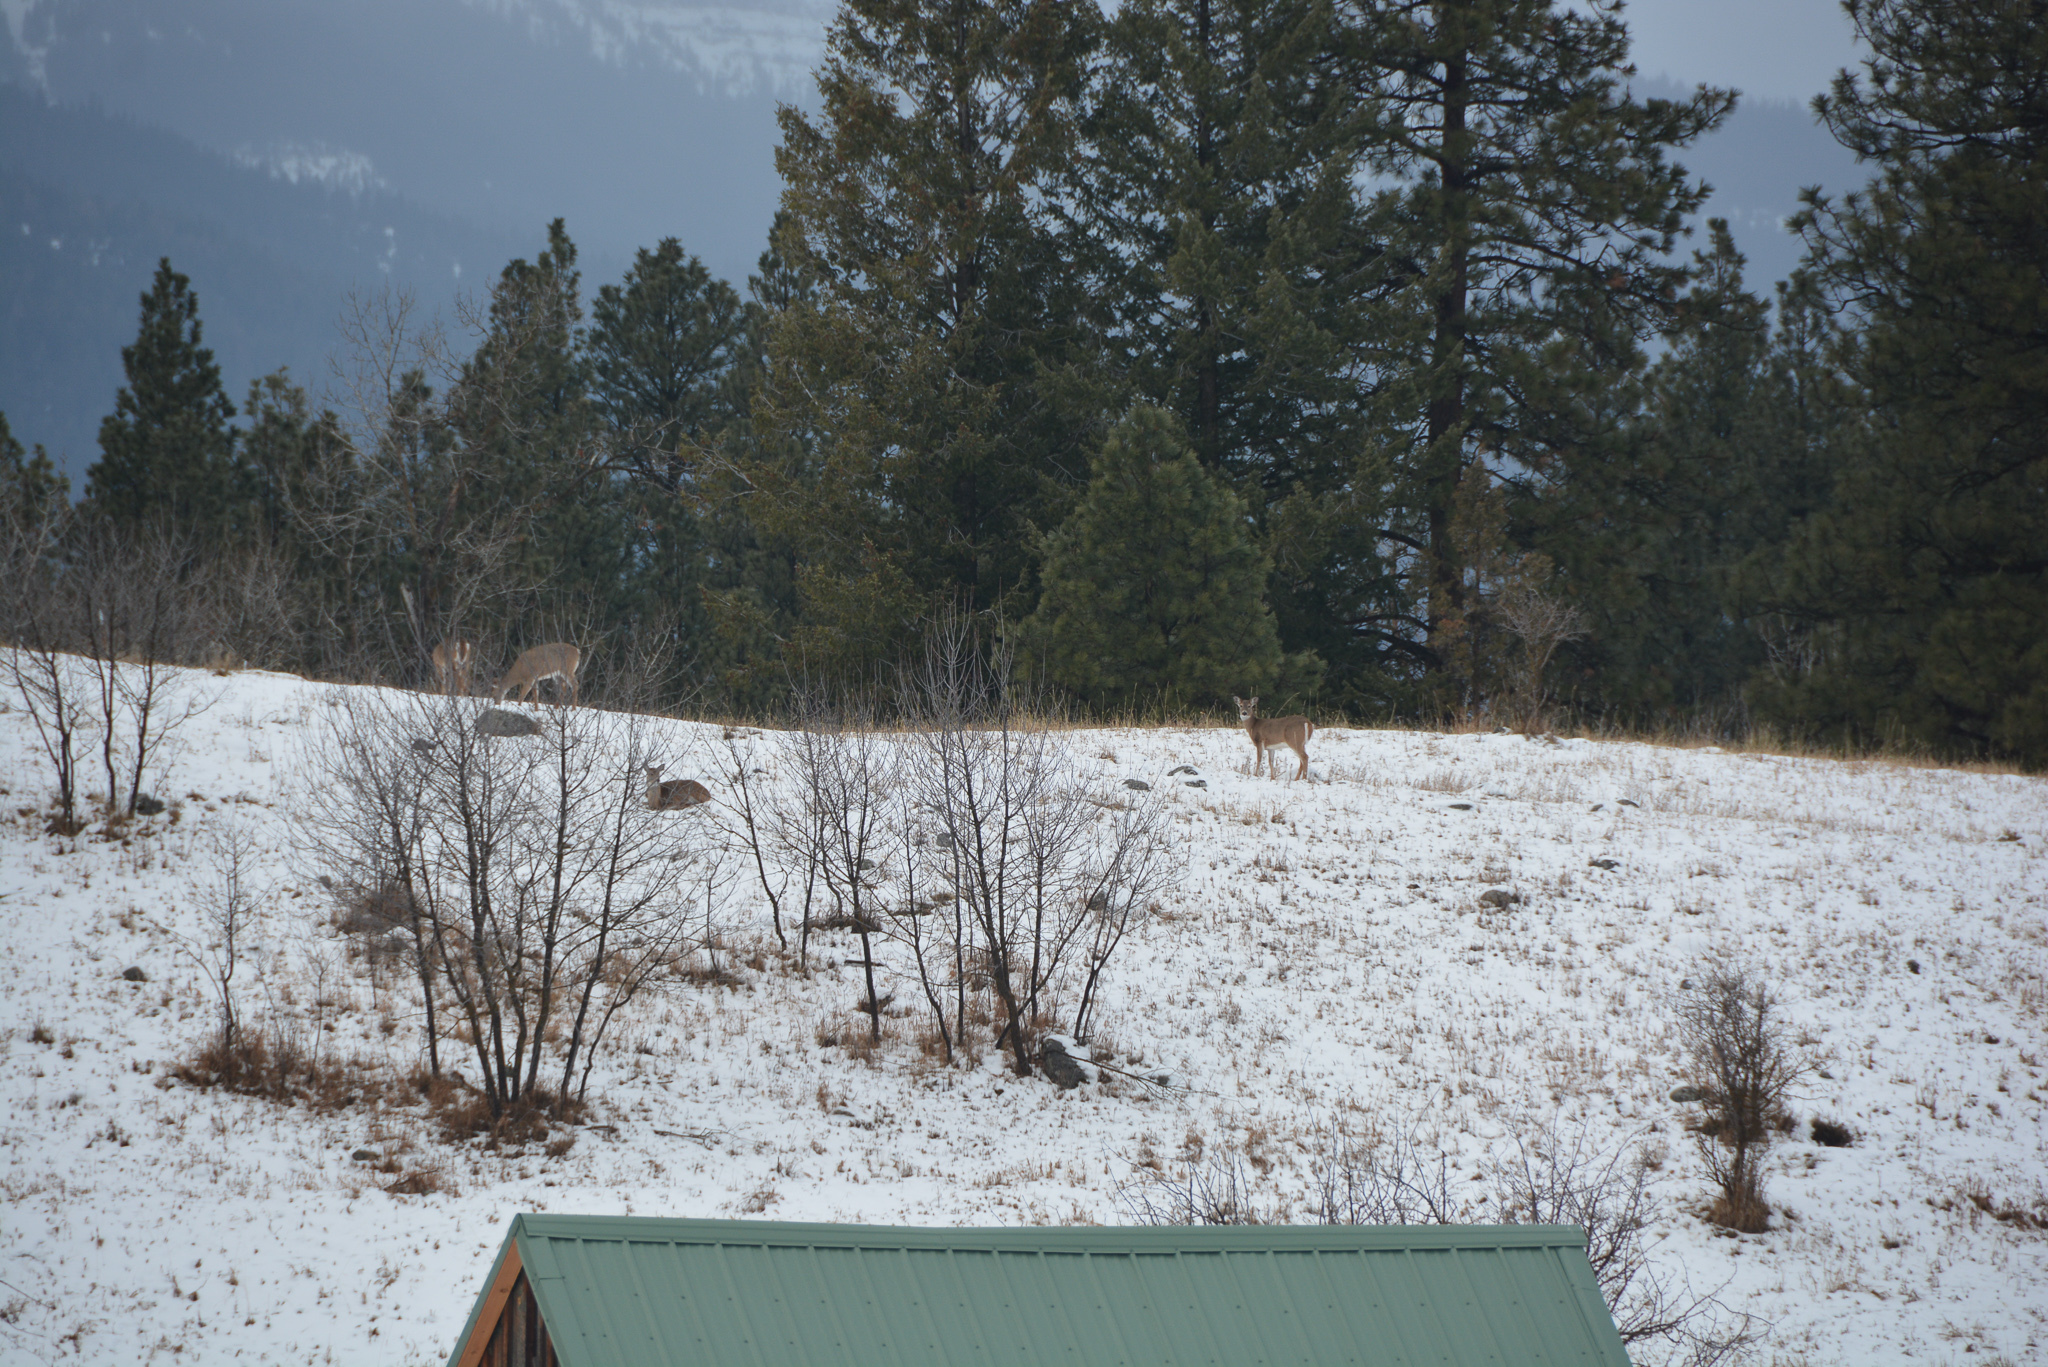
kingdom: Animalia
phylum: Chordata
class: Mammalia
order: Artiodactyla
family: Cervidae
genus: Odocoileus
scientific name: Odocoileus virginianus
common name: White-tailed deer
